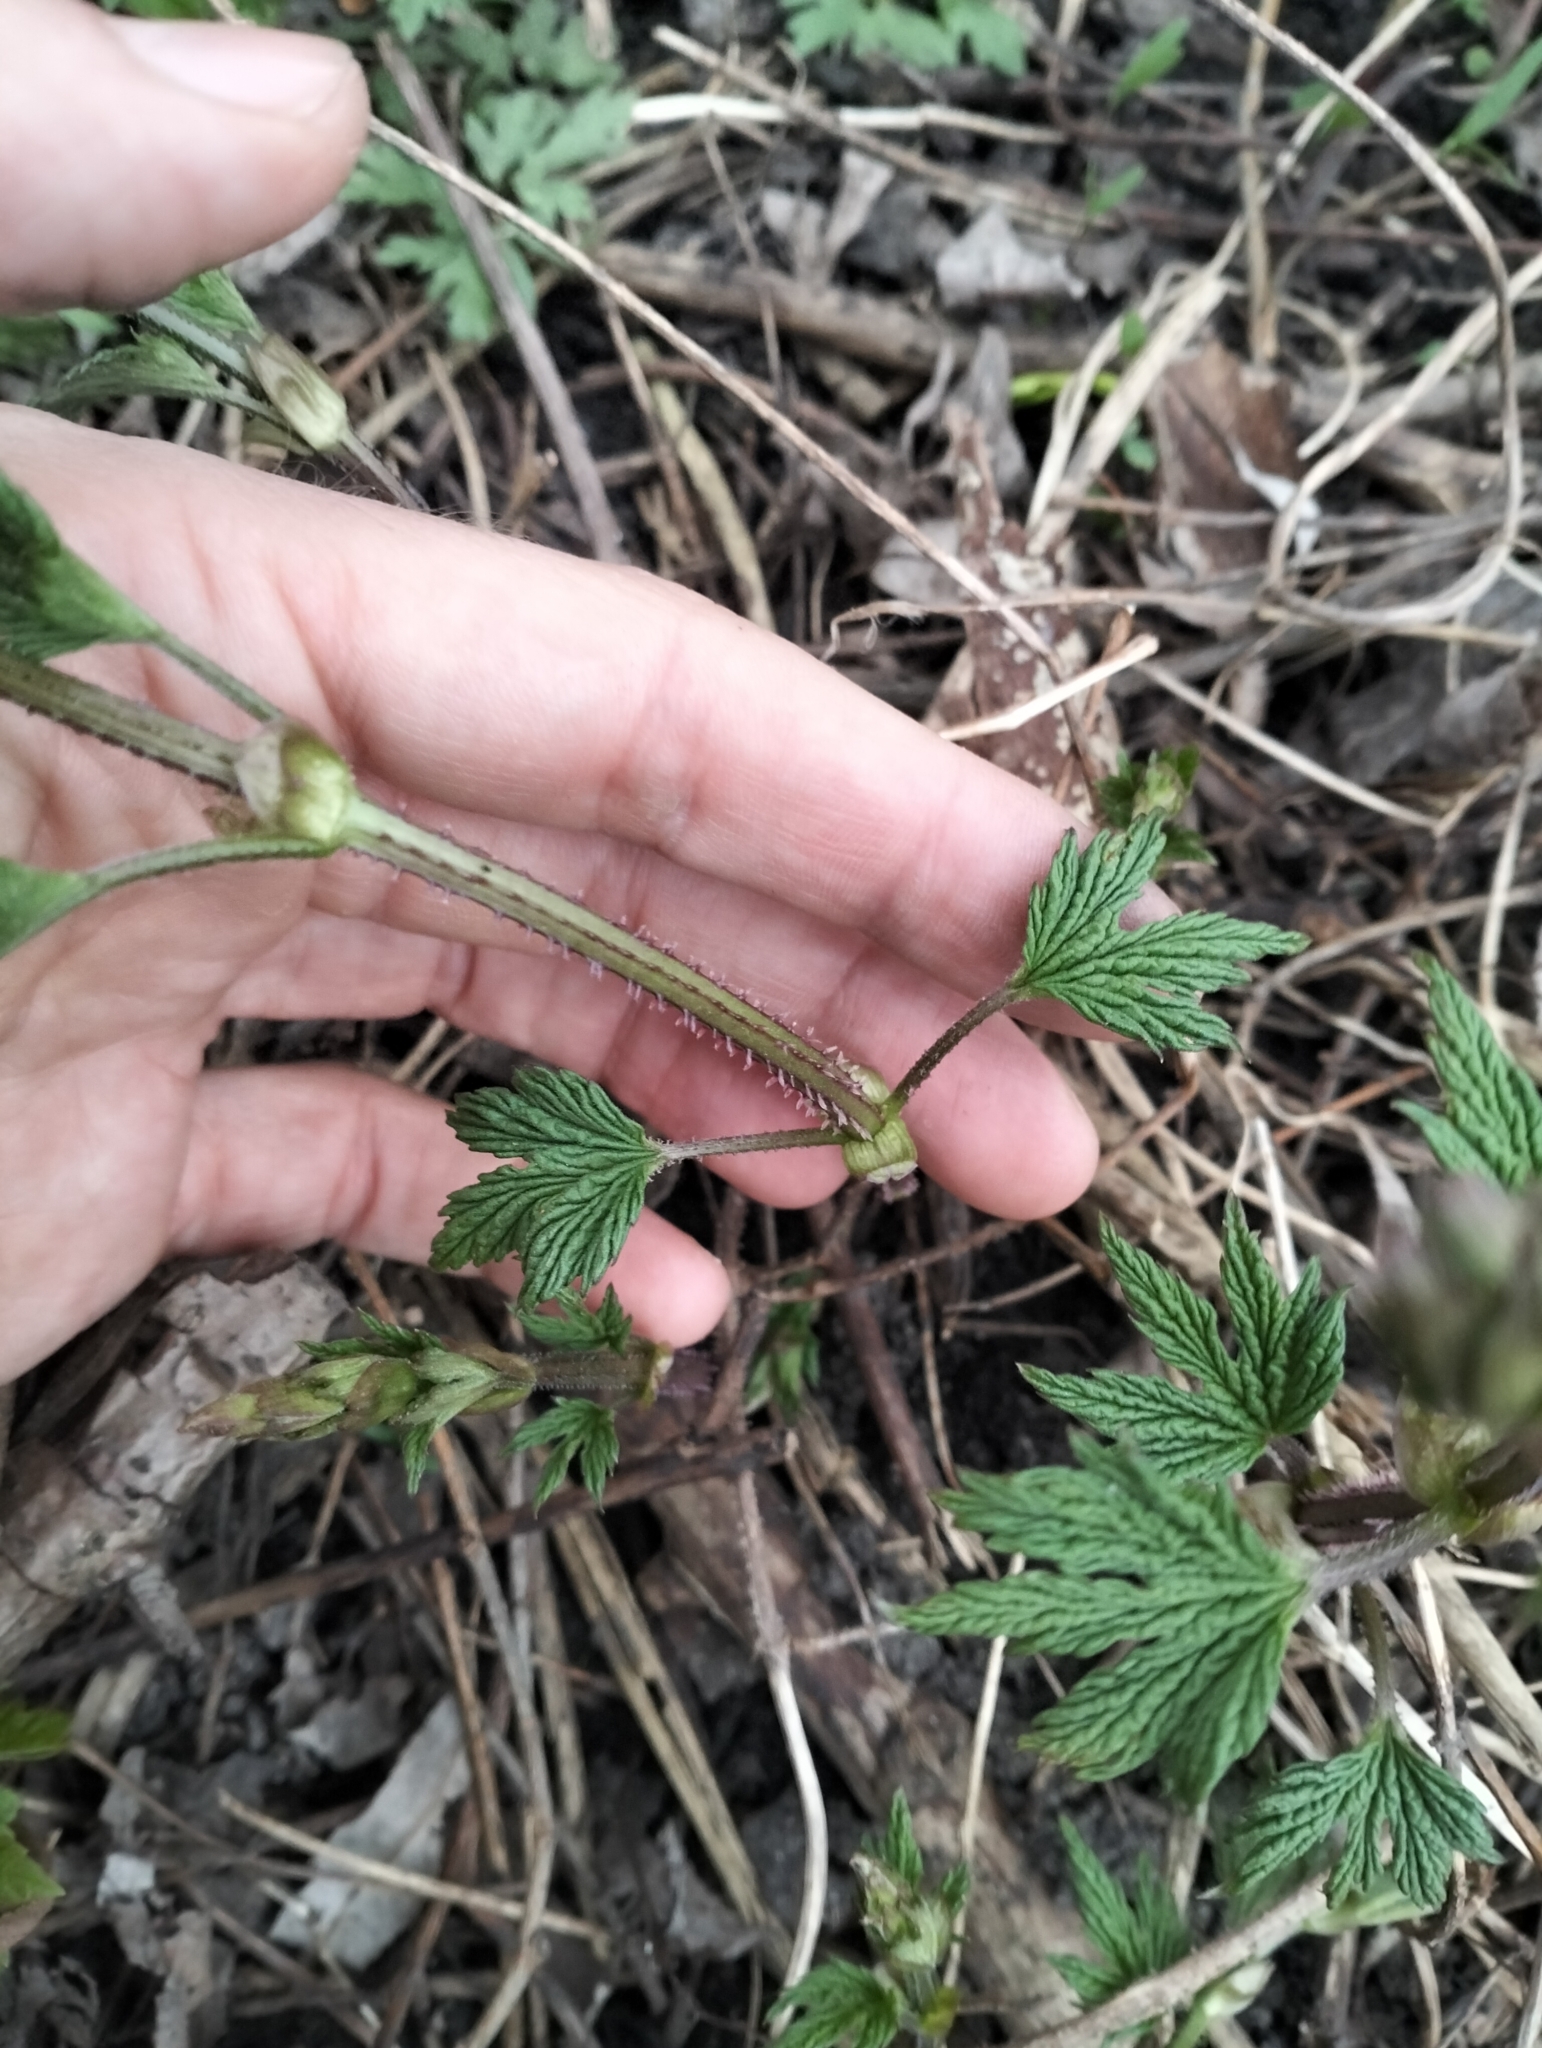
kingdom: Plantae
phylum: Tracheophyta
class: Magnoliopsida
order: Rosales
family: Cannabaceae
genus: Humulus
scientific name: Humulus lupulus
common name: Hop
